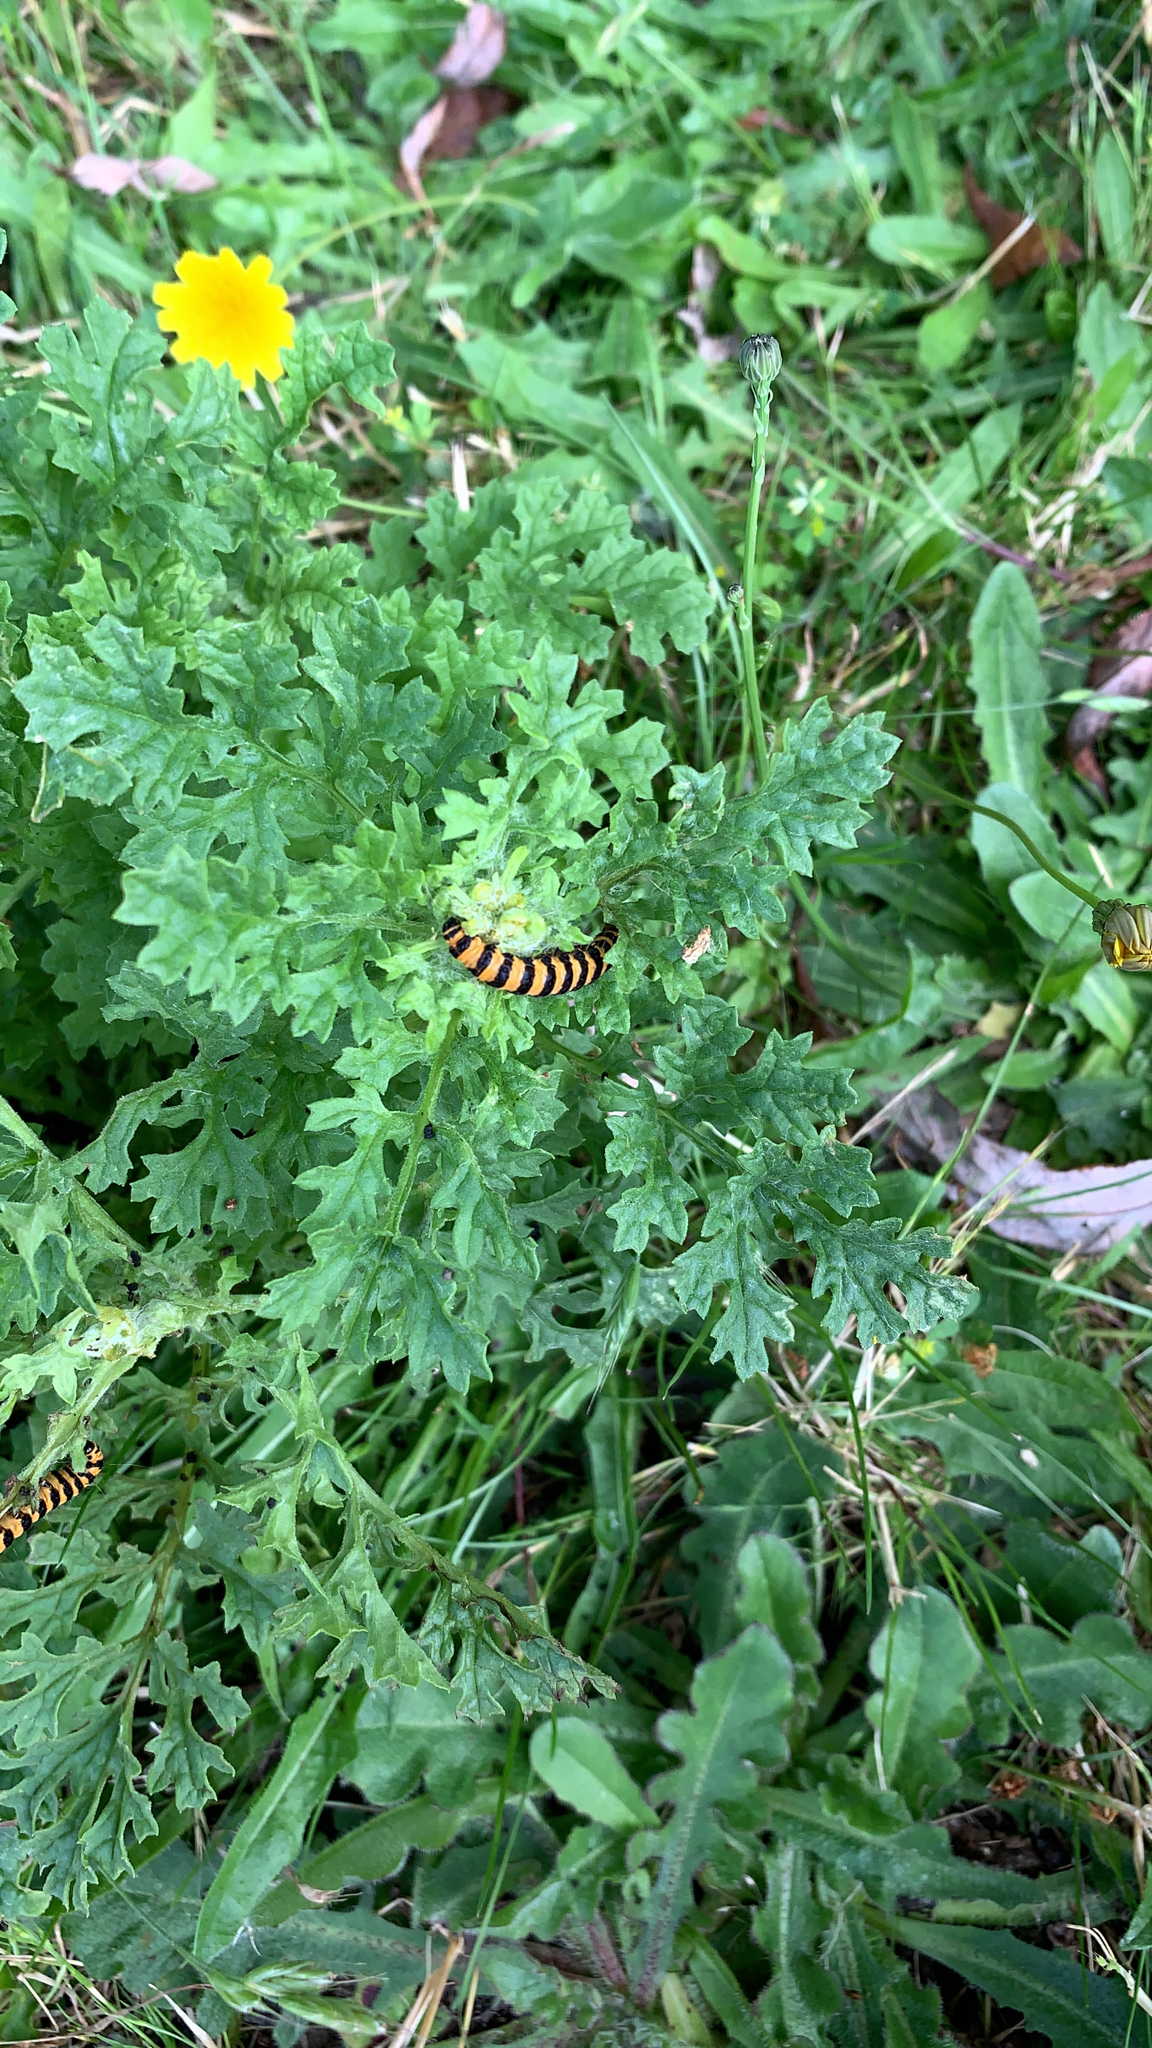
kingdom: Animalia
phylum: Arthropoda
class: Insecta
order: Lepidoptera
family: Erebidae
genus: Tyria
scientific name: Tyria jacobaeae
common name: Cinnabar
